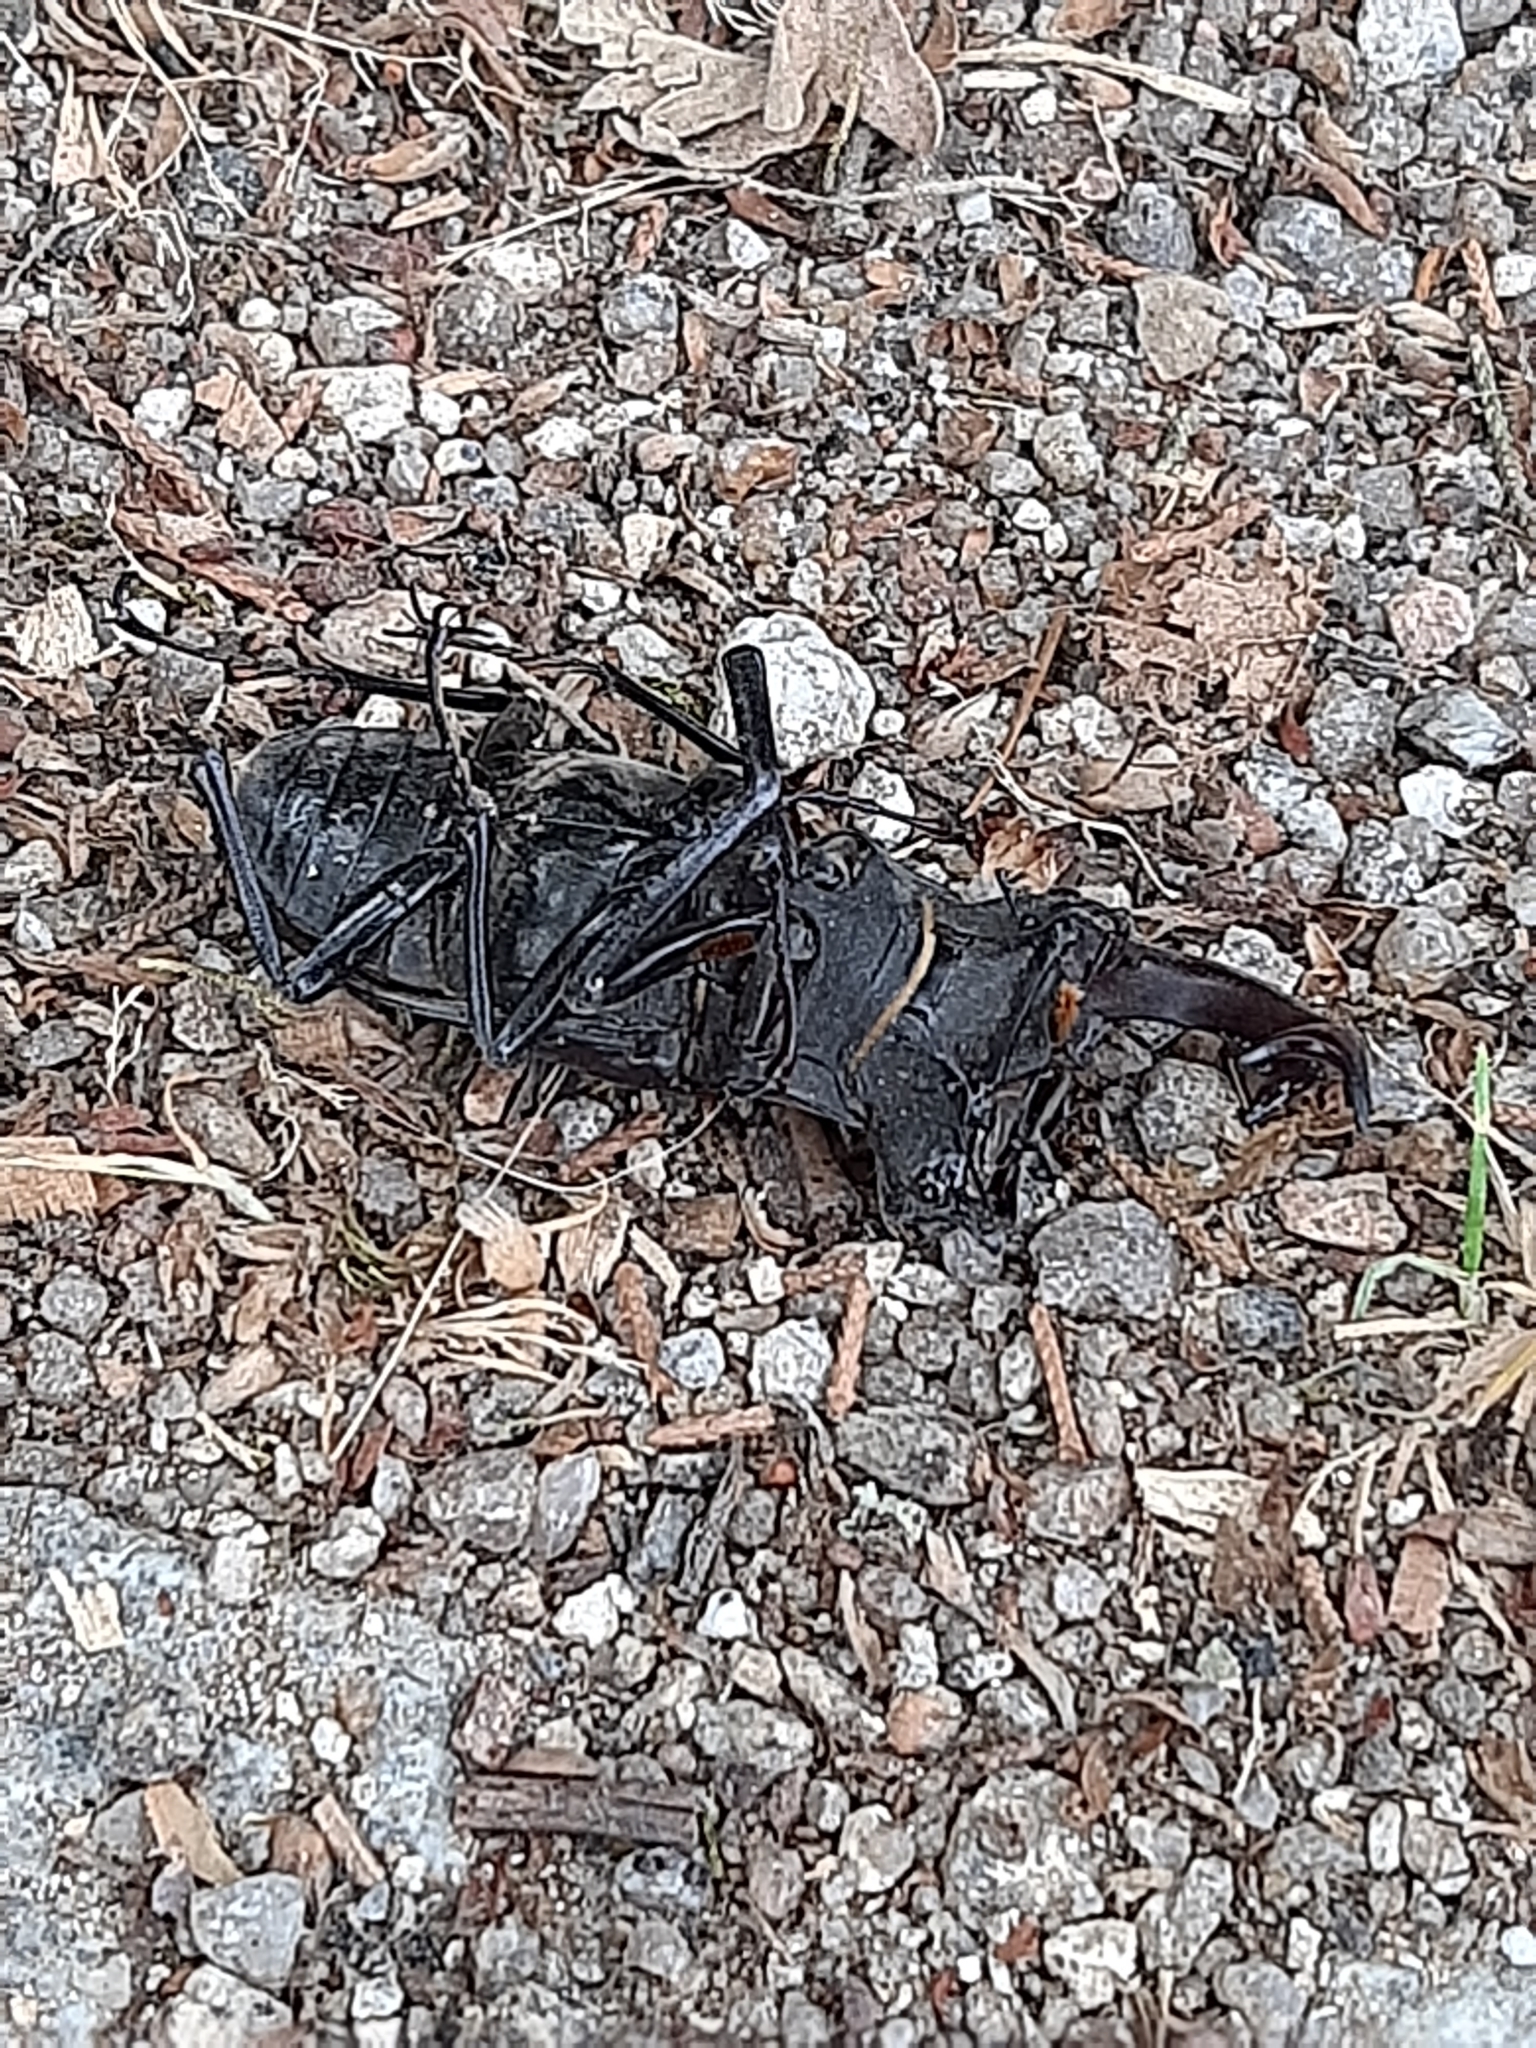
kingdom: Animalia
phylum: Arthropoda
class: Insecta
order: Coleoptera
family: Lucanidae
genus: Lucanus
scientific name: Lucanus cervus
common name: Stag beetle
